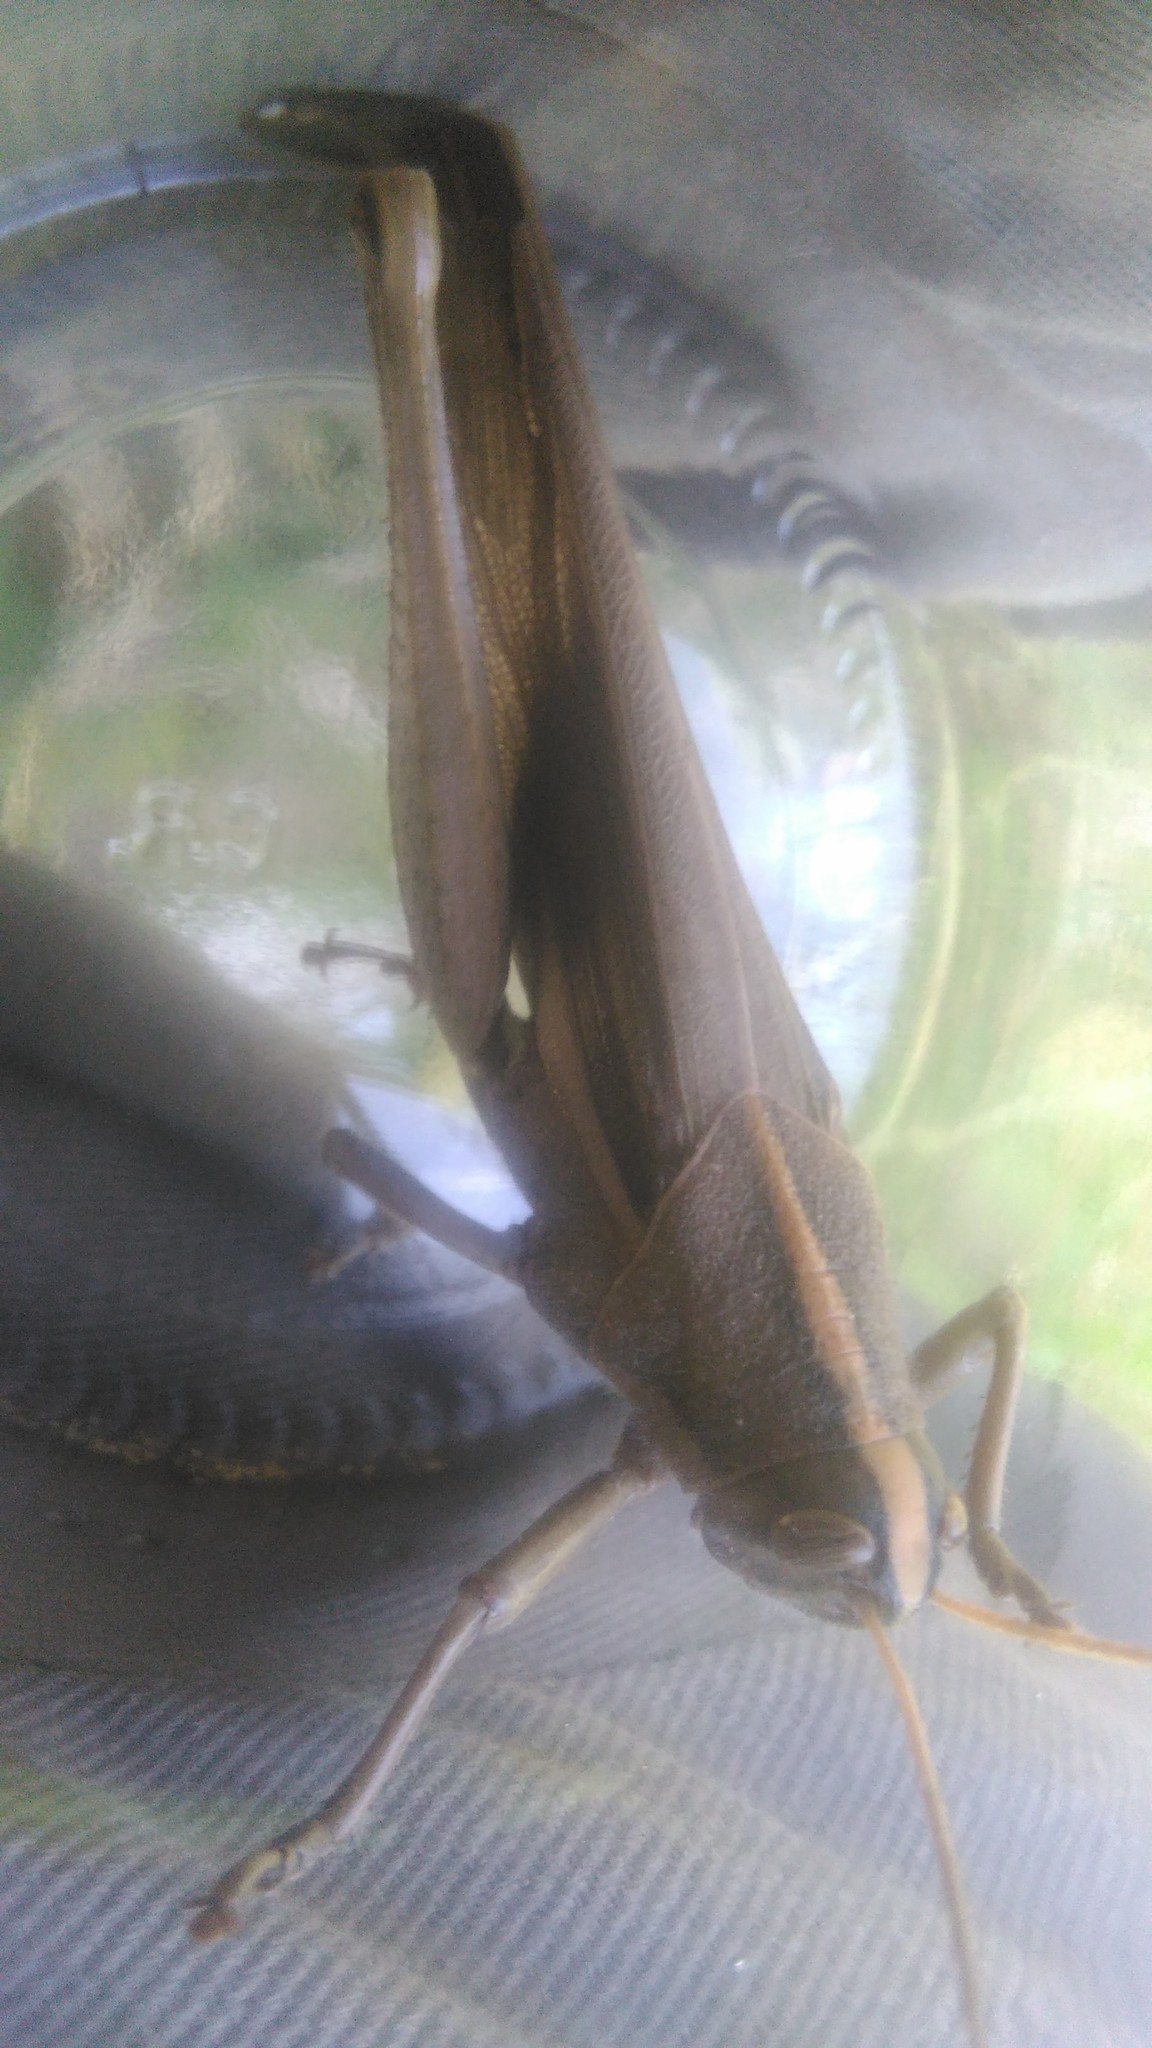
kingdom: Animalia
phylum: Arthropoda
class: Insecta
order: Orthoptera
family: Acrididae
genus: Schistocerca
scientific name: Schistocerca flavofasciata
